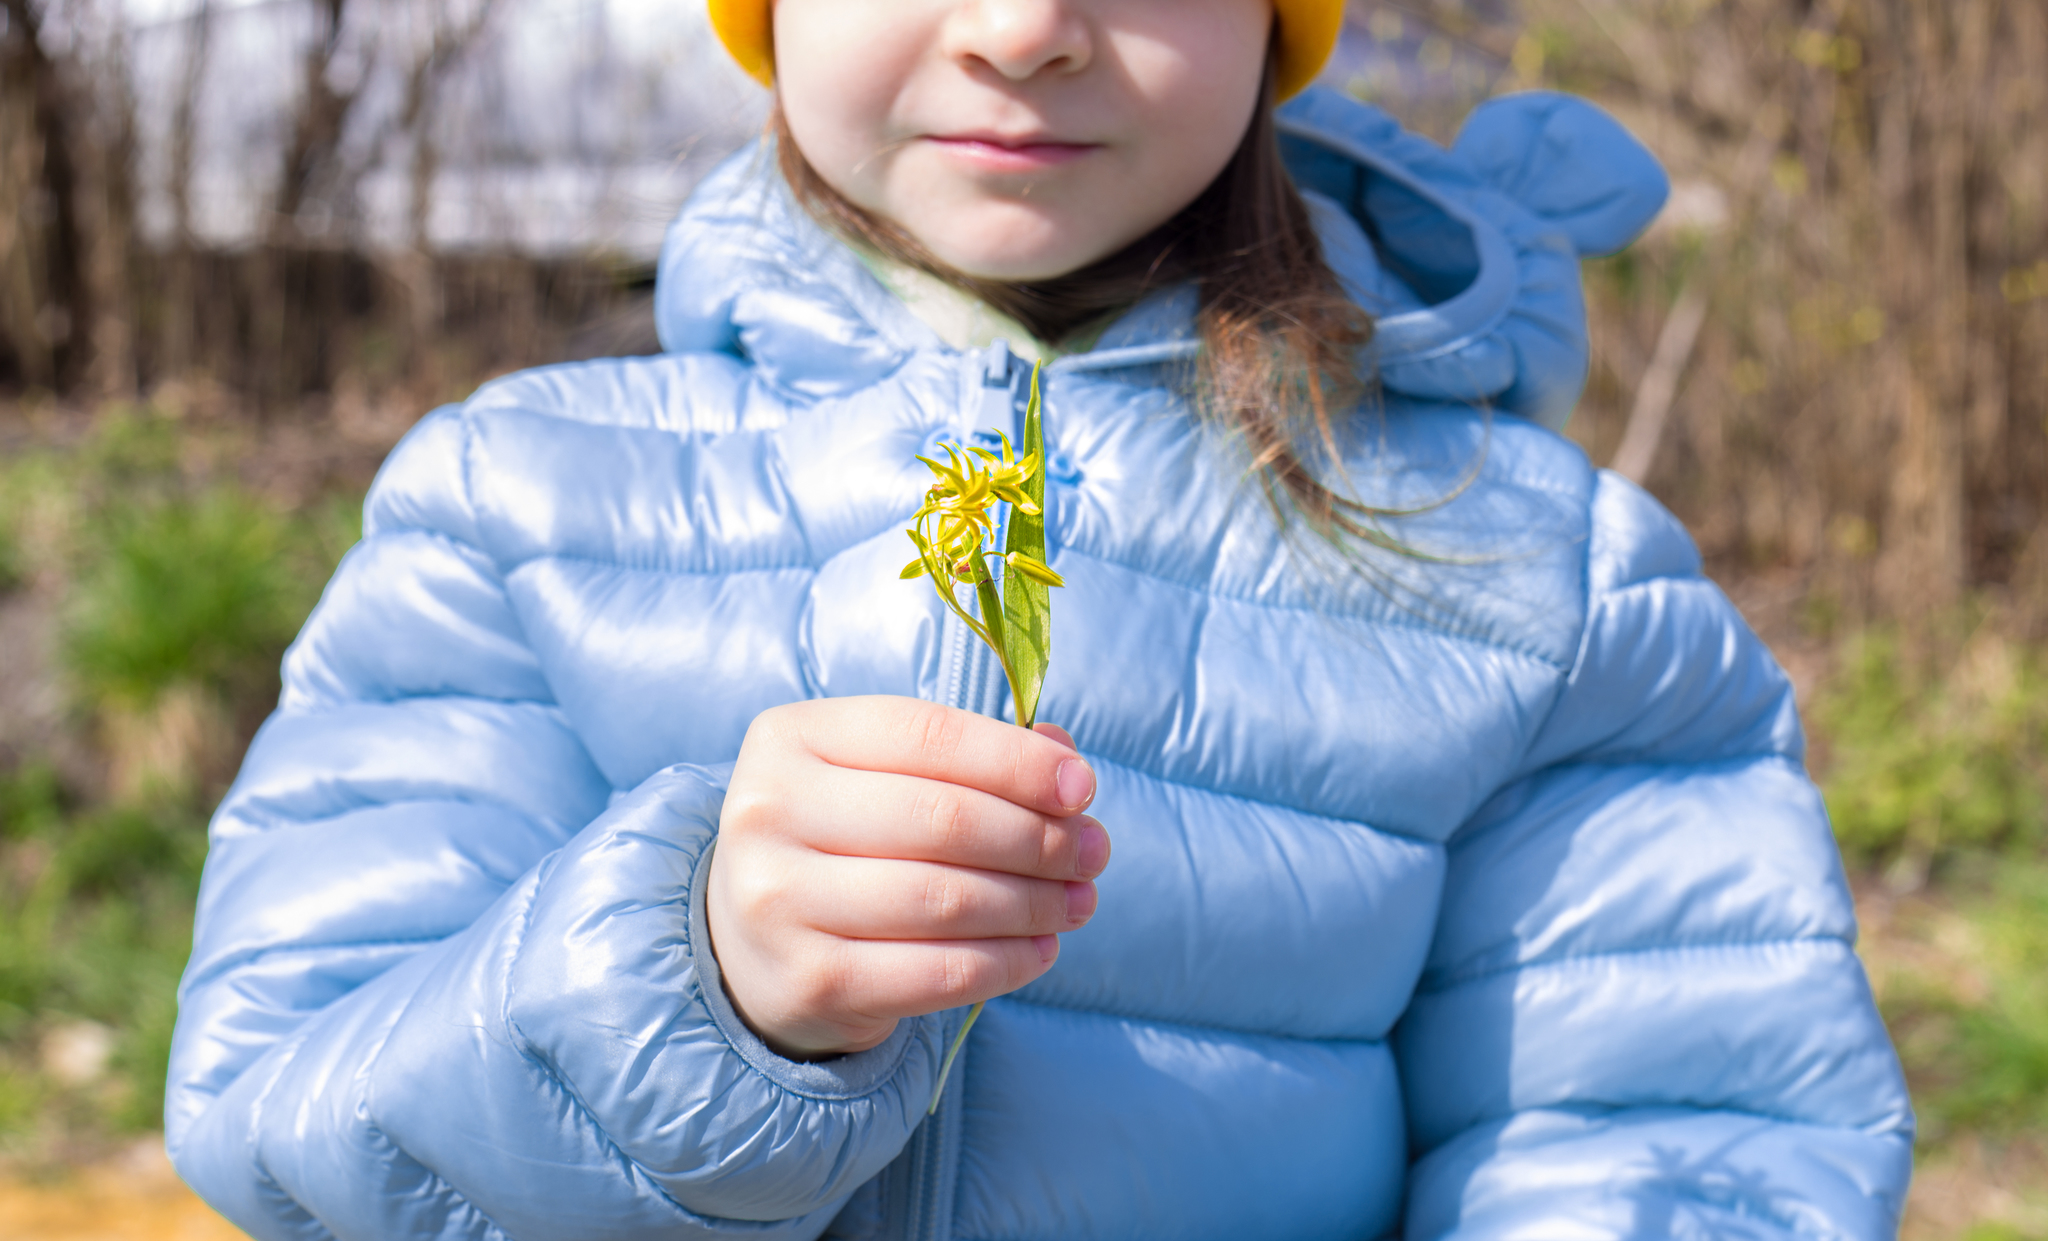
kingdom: Plantae
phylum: Tracheophyta
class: Liliopsida
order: Liliales
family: Liliaceae
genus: Gagea
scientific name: Gagea minima
